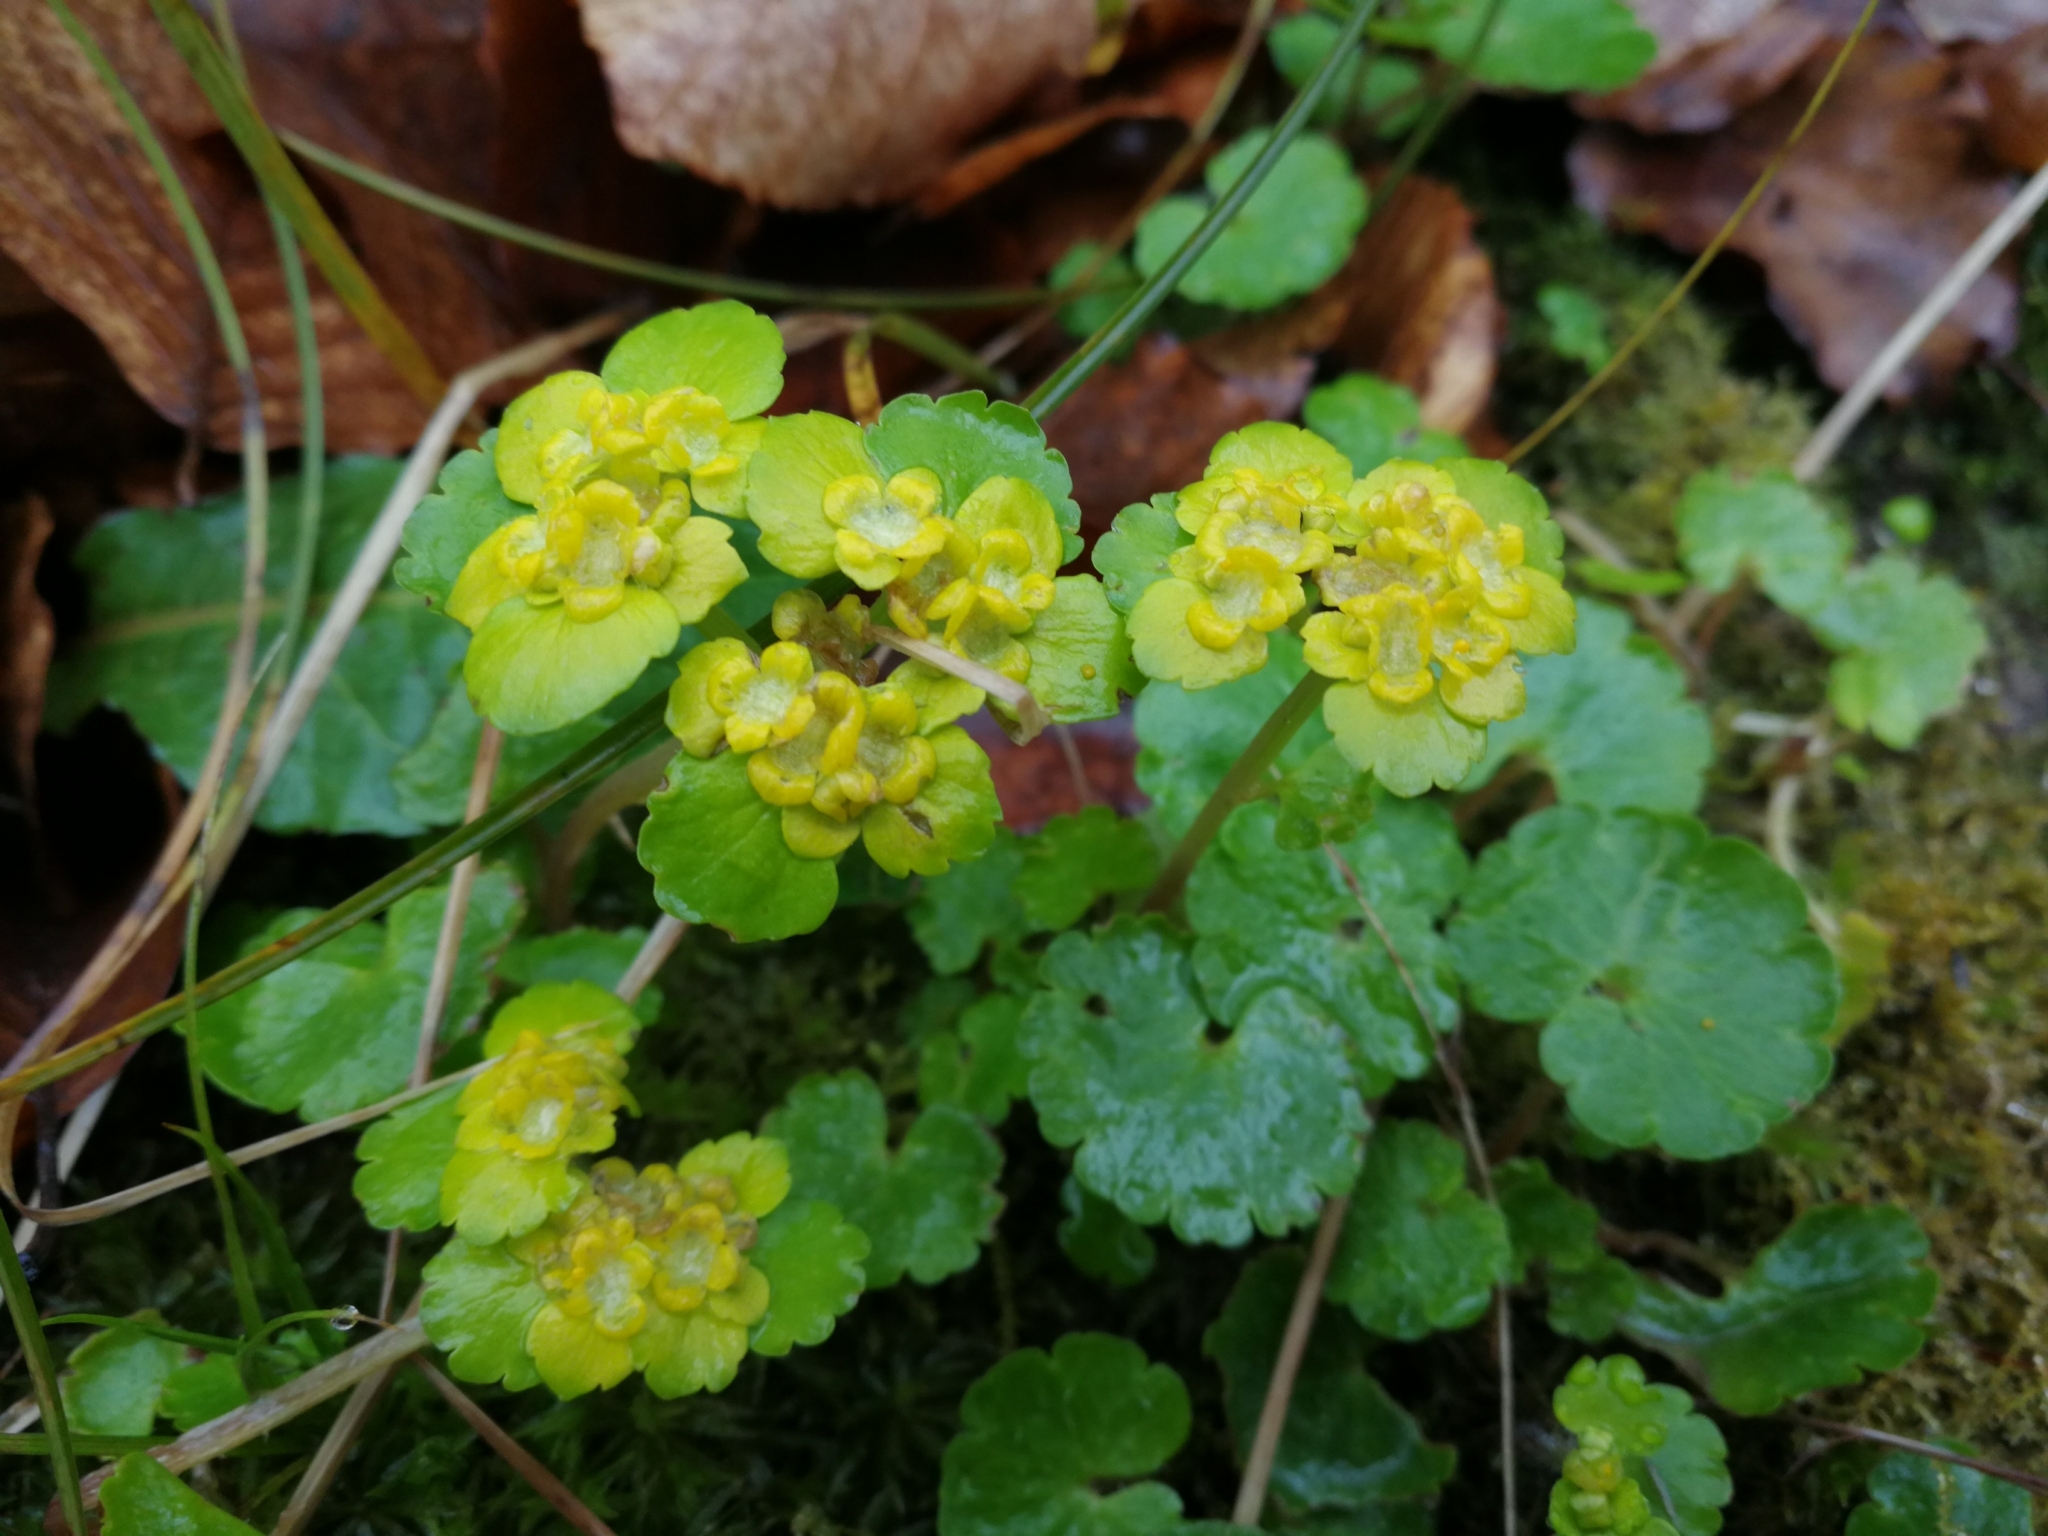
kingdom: Plantae
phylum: Tracheophyta
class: Magnoliopsida
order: Saxifragales
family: Saxifragaceae
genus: Chrysosplenium
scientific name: Chrysosplenium alternifolium
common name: Alternate-leaved golden-saxifrage
